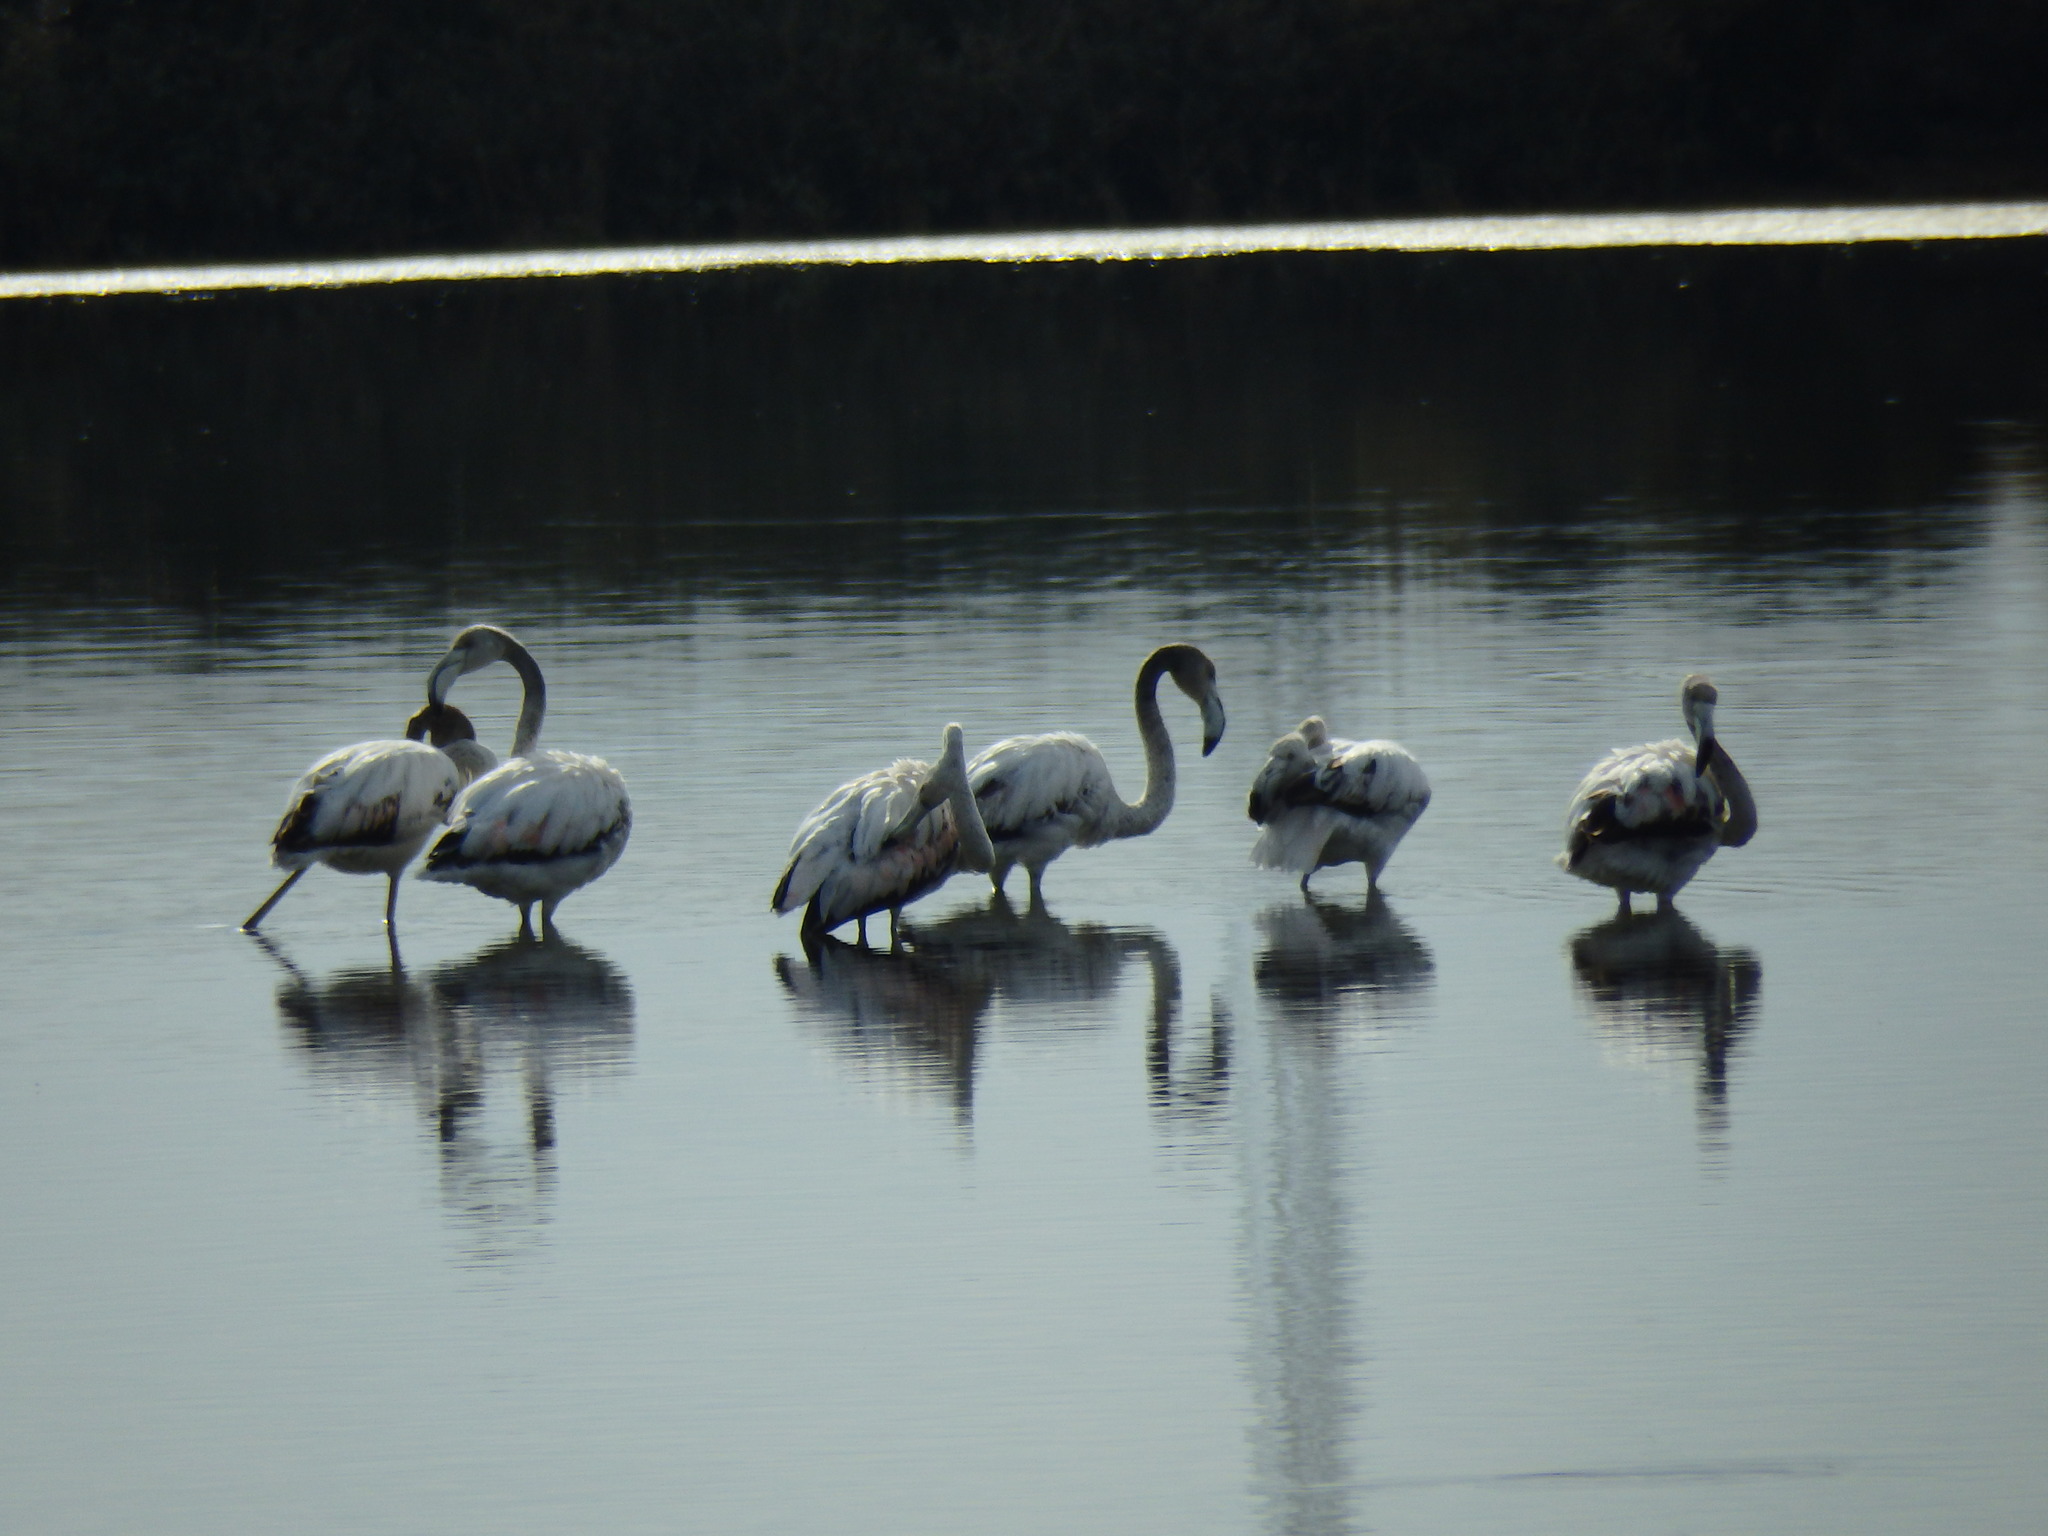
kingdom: Animalia
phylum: Chordata
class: Aves
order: Phoenicopteriformes
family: Phoenicopteridae
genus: Phoenicopterus
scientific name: Phoenicopterus roseus
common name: Greater flamingo
